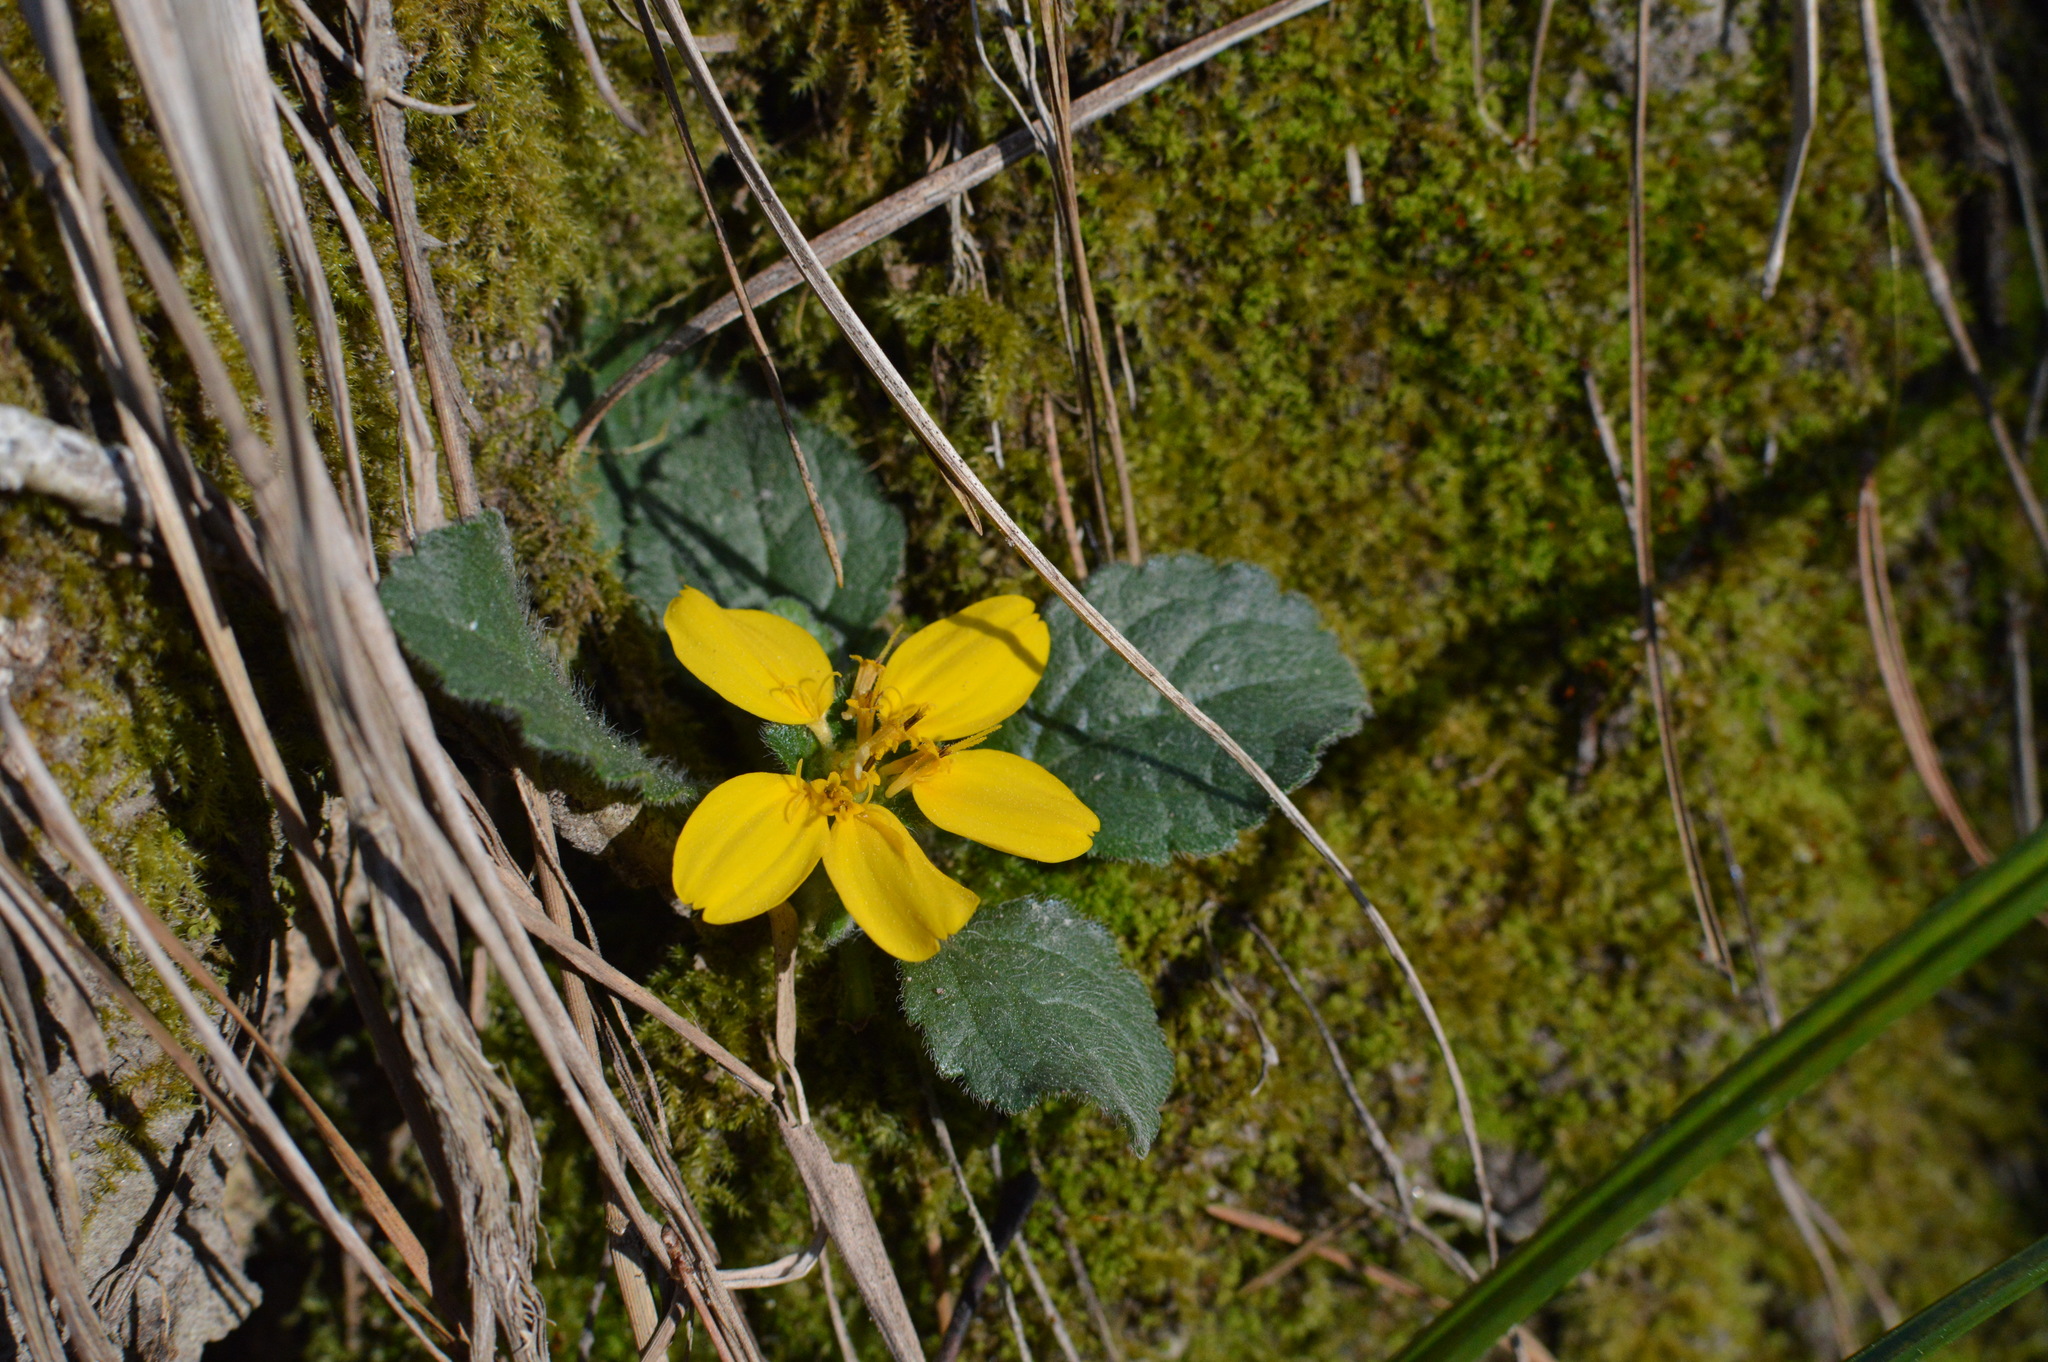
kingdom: Plantae
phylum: Tracheophyta
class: Magnoliopsida
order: Asterales
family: Asteraceae
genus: Chrysogonum
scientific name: Chrysogonum virginianum
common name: Golden-knee
